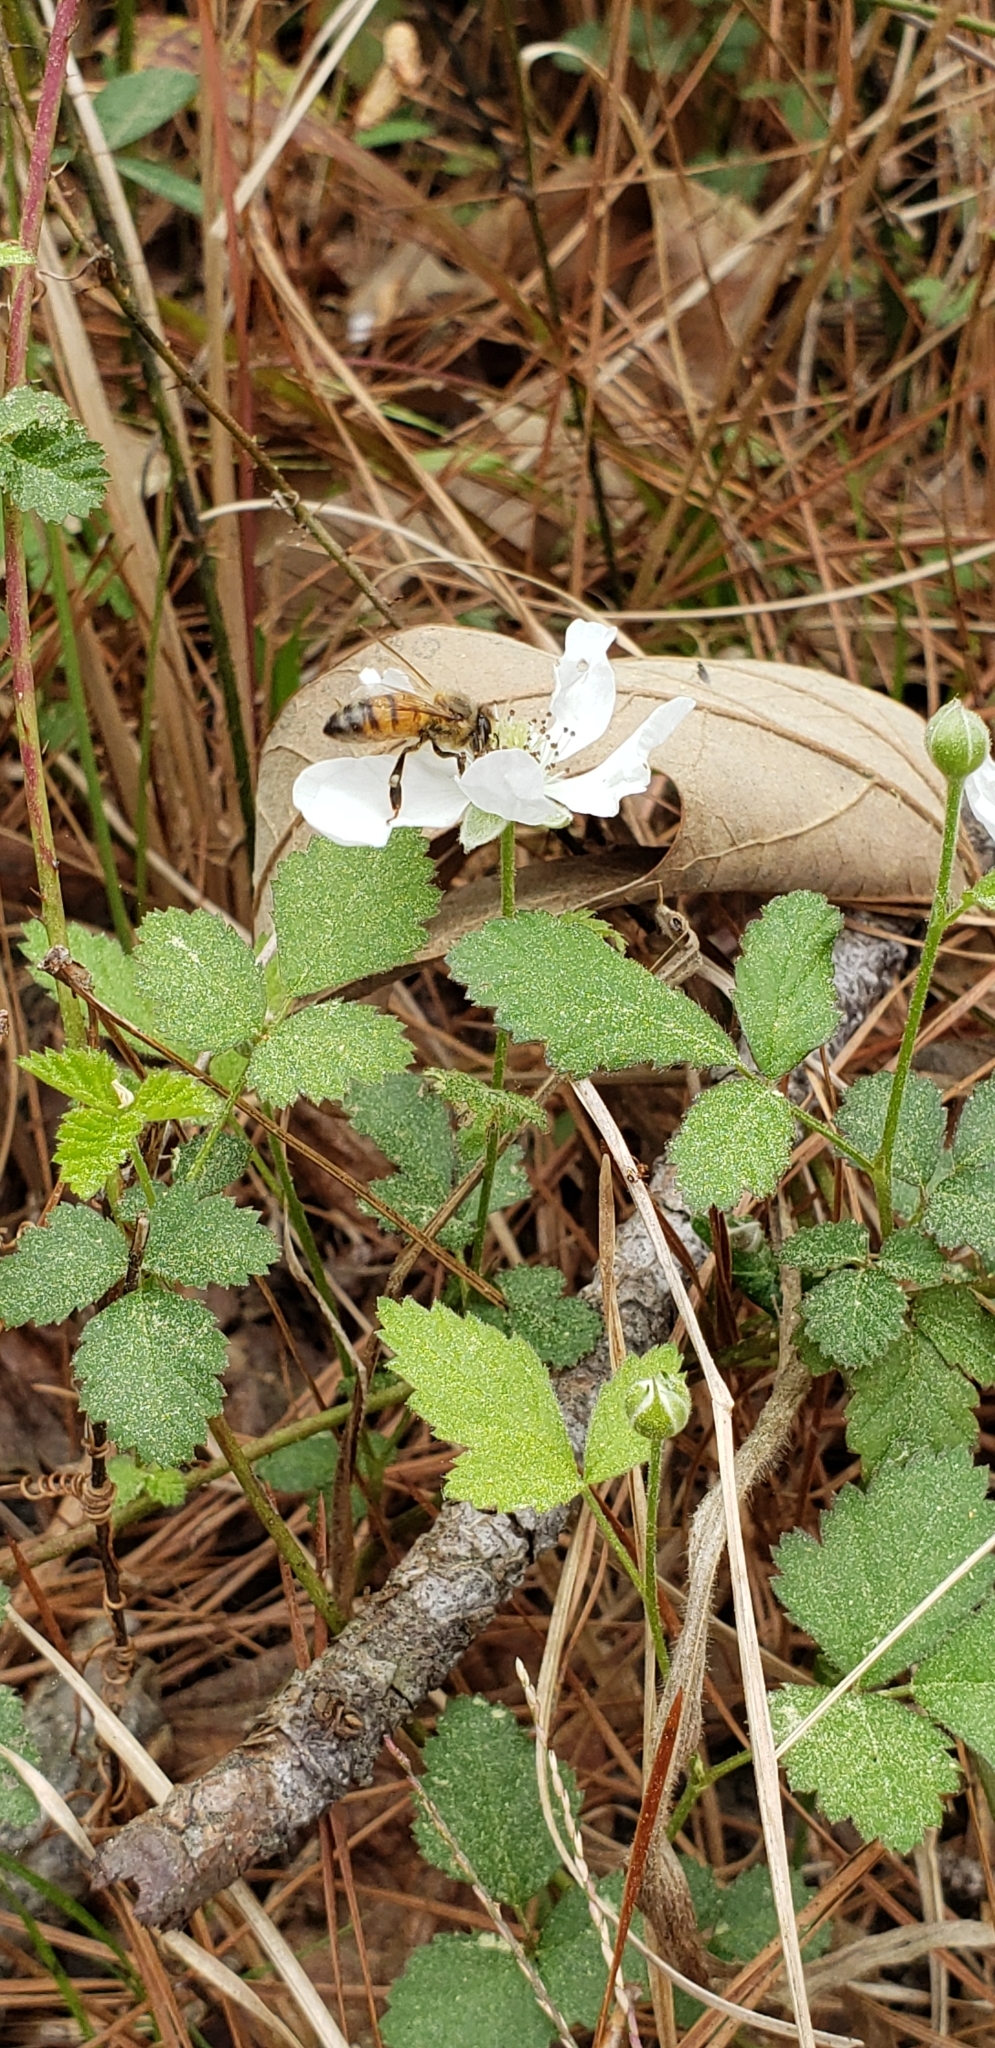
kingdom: Animalia
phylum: Arthropoda
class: Insecta
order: Hymenoptera
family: Apidae
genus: Apis
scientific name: Apis mellifera
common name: Honey bee
